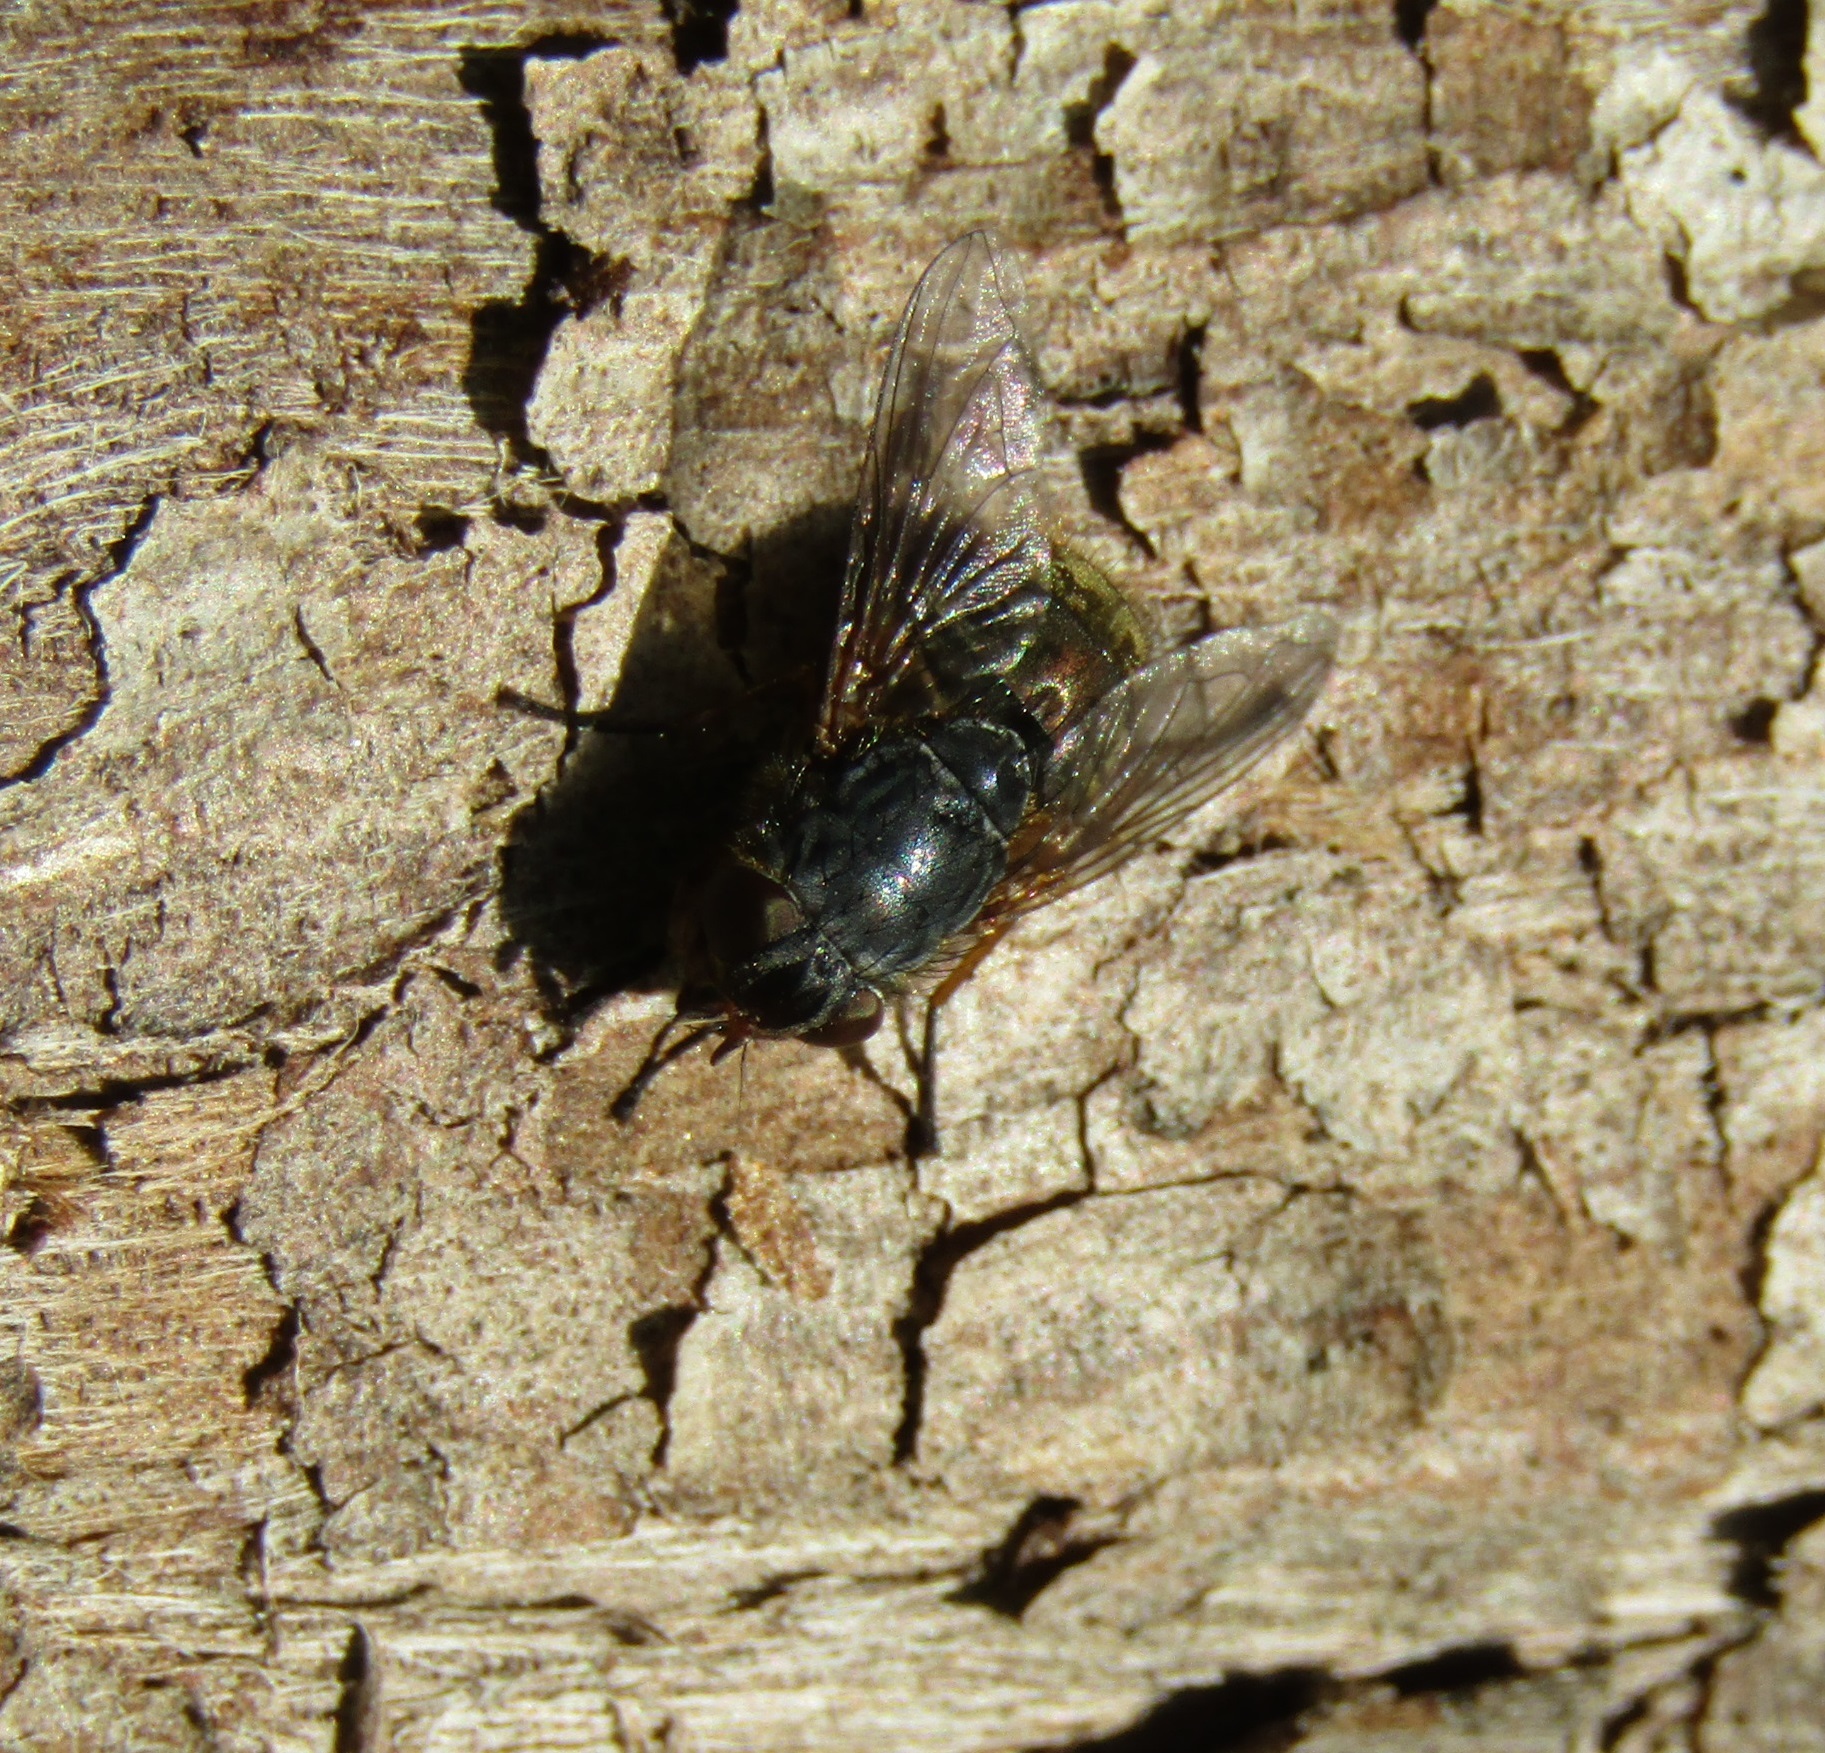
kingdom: Animalia
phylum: Arthropoda
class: Insecta
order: Diptera
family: Calliphoridae
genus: Calliphora
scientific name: Calliphora stygia
